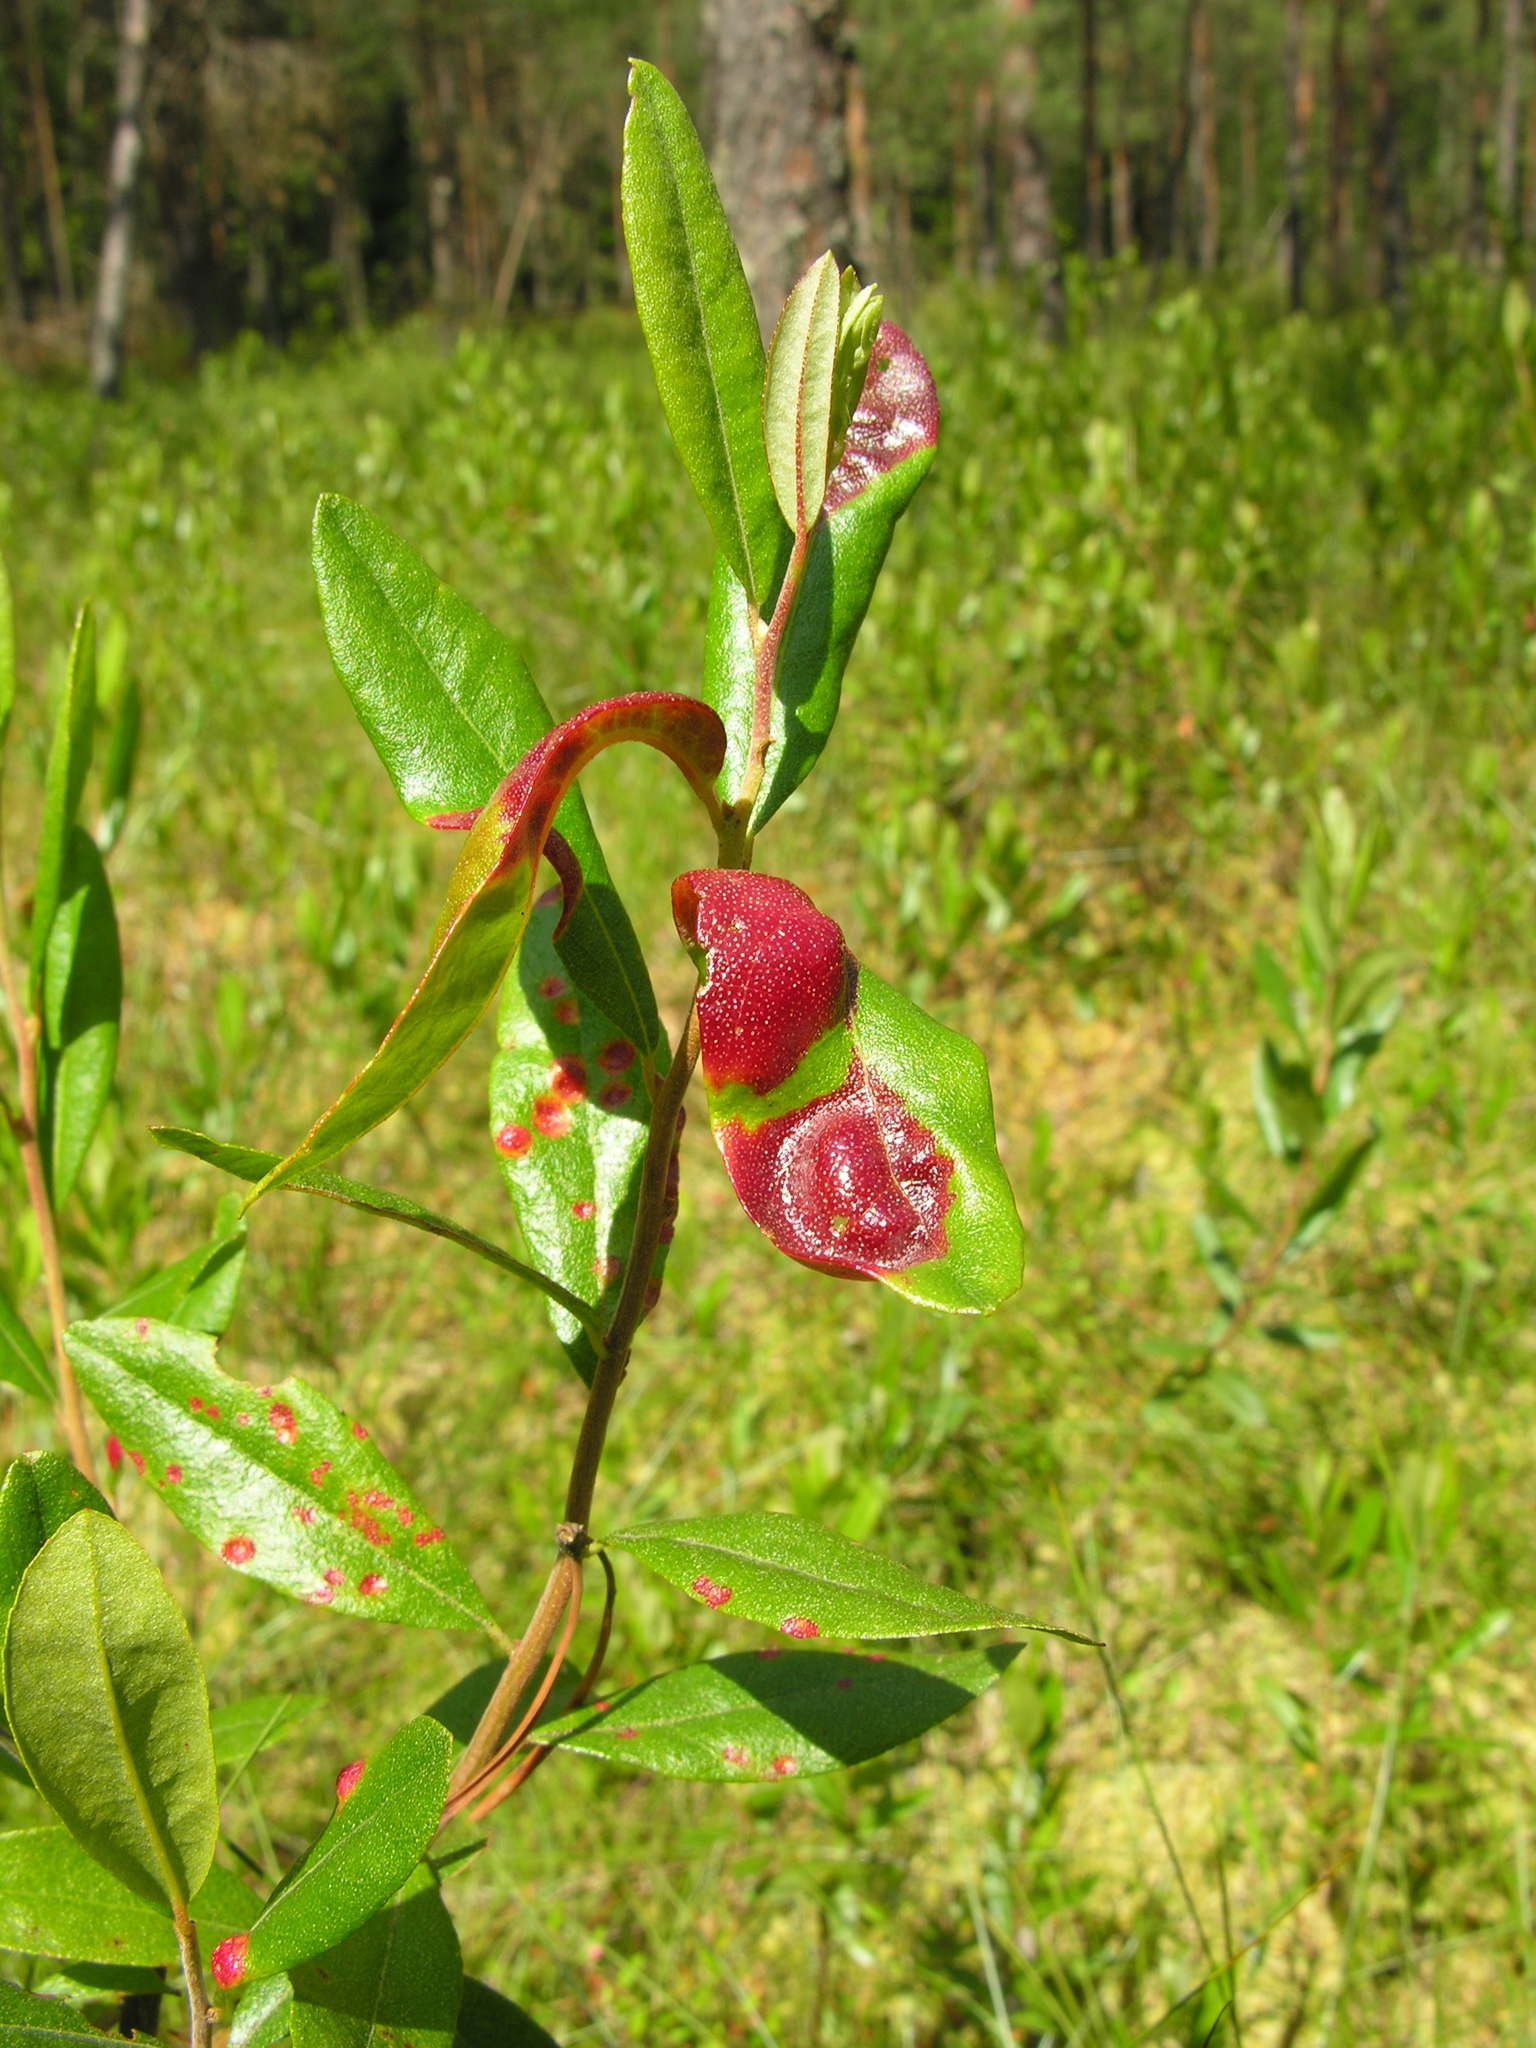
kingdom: Fungi
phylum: Basidiomycota
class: Exobasidiomycetes
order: Exobasidiales
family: Exobasidiaceae
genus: Exobasidium
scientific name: Exobasidium cassandrae
